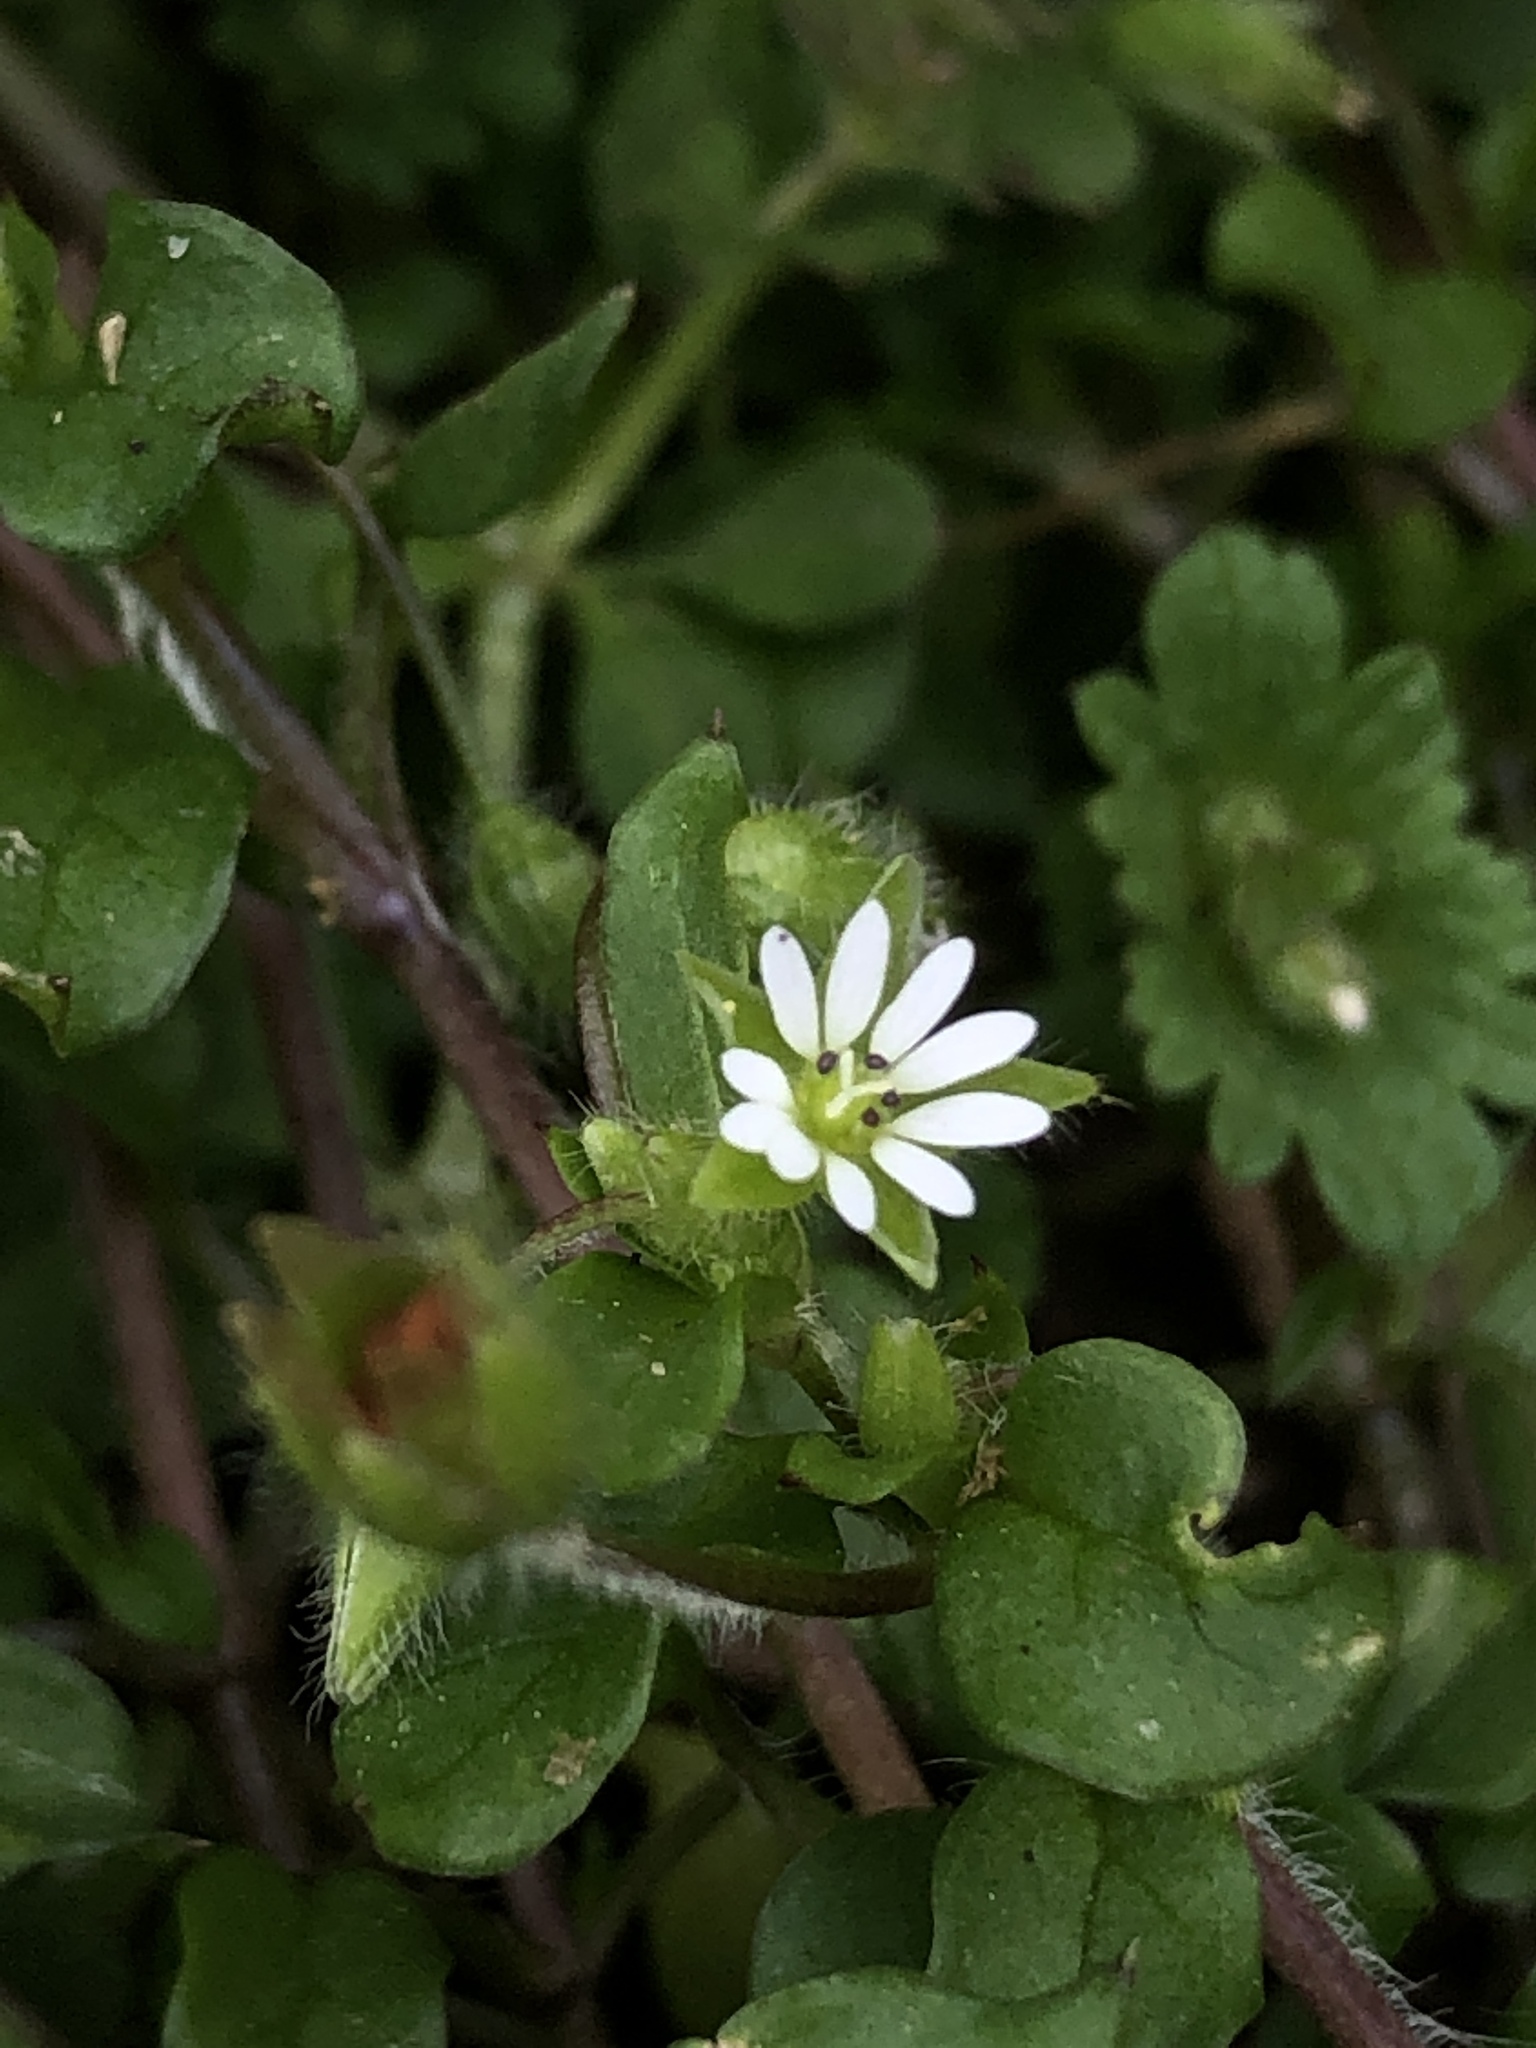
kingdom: Plantae
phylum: Tracheophyta
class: Magnoliopsida
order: Caryophyllales
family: Caryophyllaceae
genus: Stellaria
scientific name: Stellaria media
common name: Common chickweed
